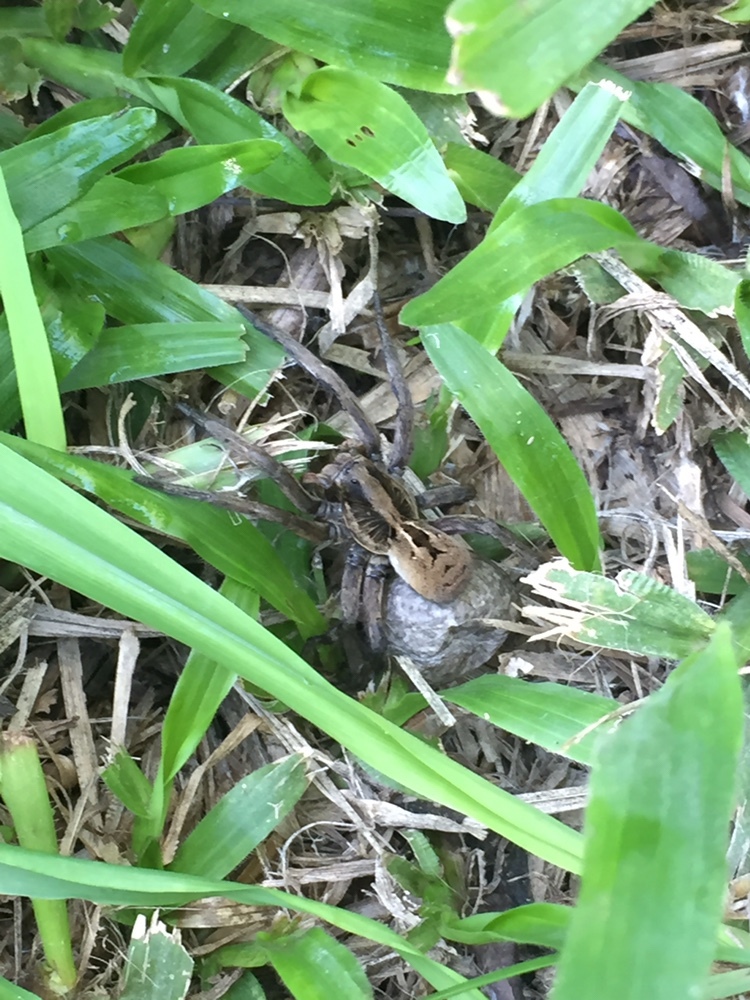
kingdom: Animalia
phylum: Arthropoda
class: Arachnida
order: Araneae
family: Lycosidae
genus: Lycosa
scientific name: Lycosa erythrognatha
